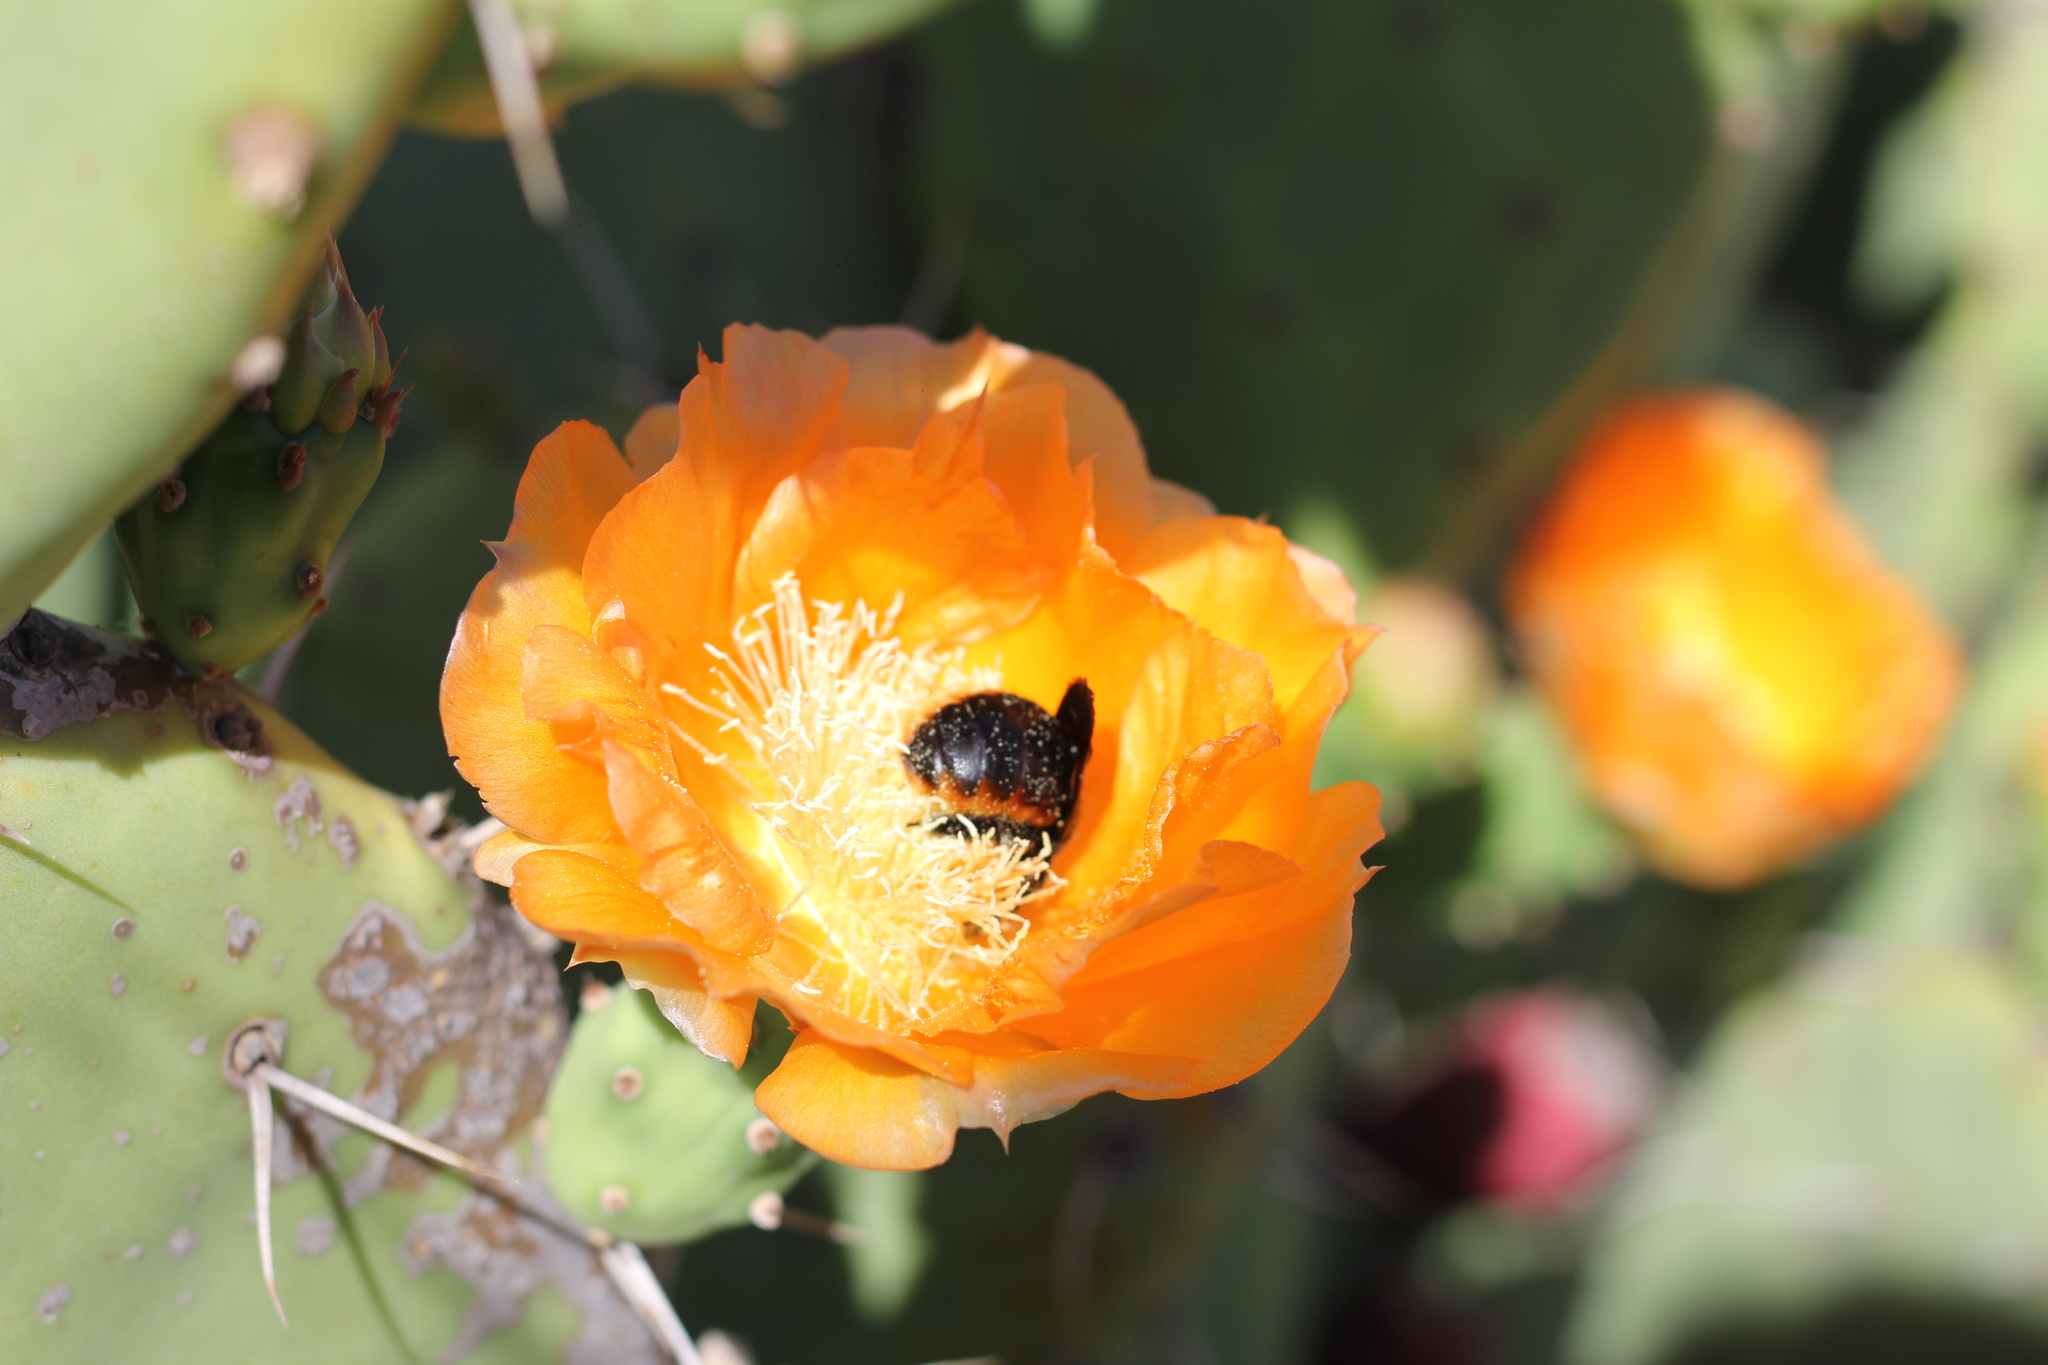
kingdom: Animalia
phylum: Arthropoda
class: Insecta
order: Hymenoptera
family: Apidae
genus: Xylocopa
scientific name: Xylocopa augusti
